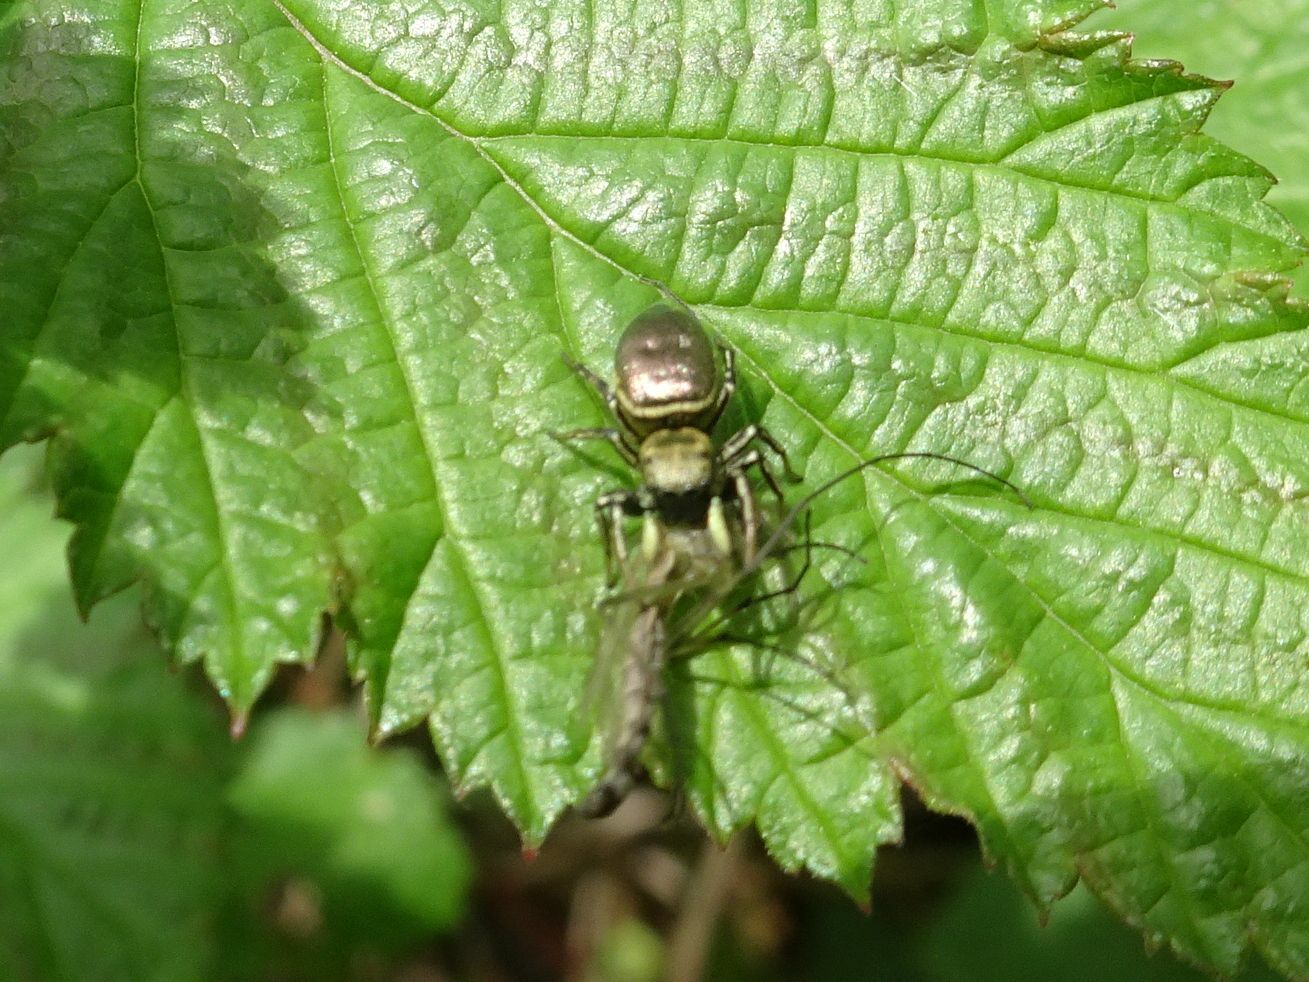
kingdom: Animalia
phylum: Arthropoda
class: Arachnida
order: Araneae
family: Salticidae
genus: Heliophanus
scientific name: Heliophanus auratus
